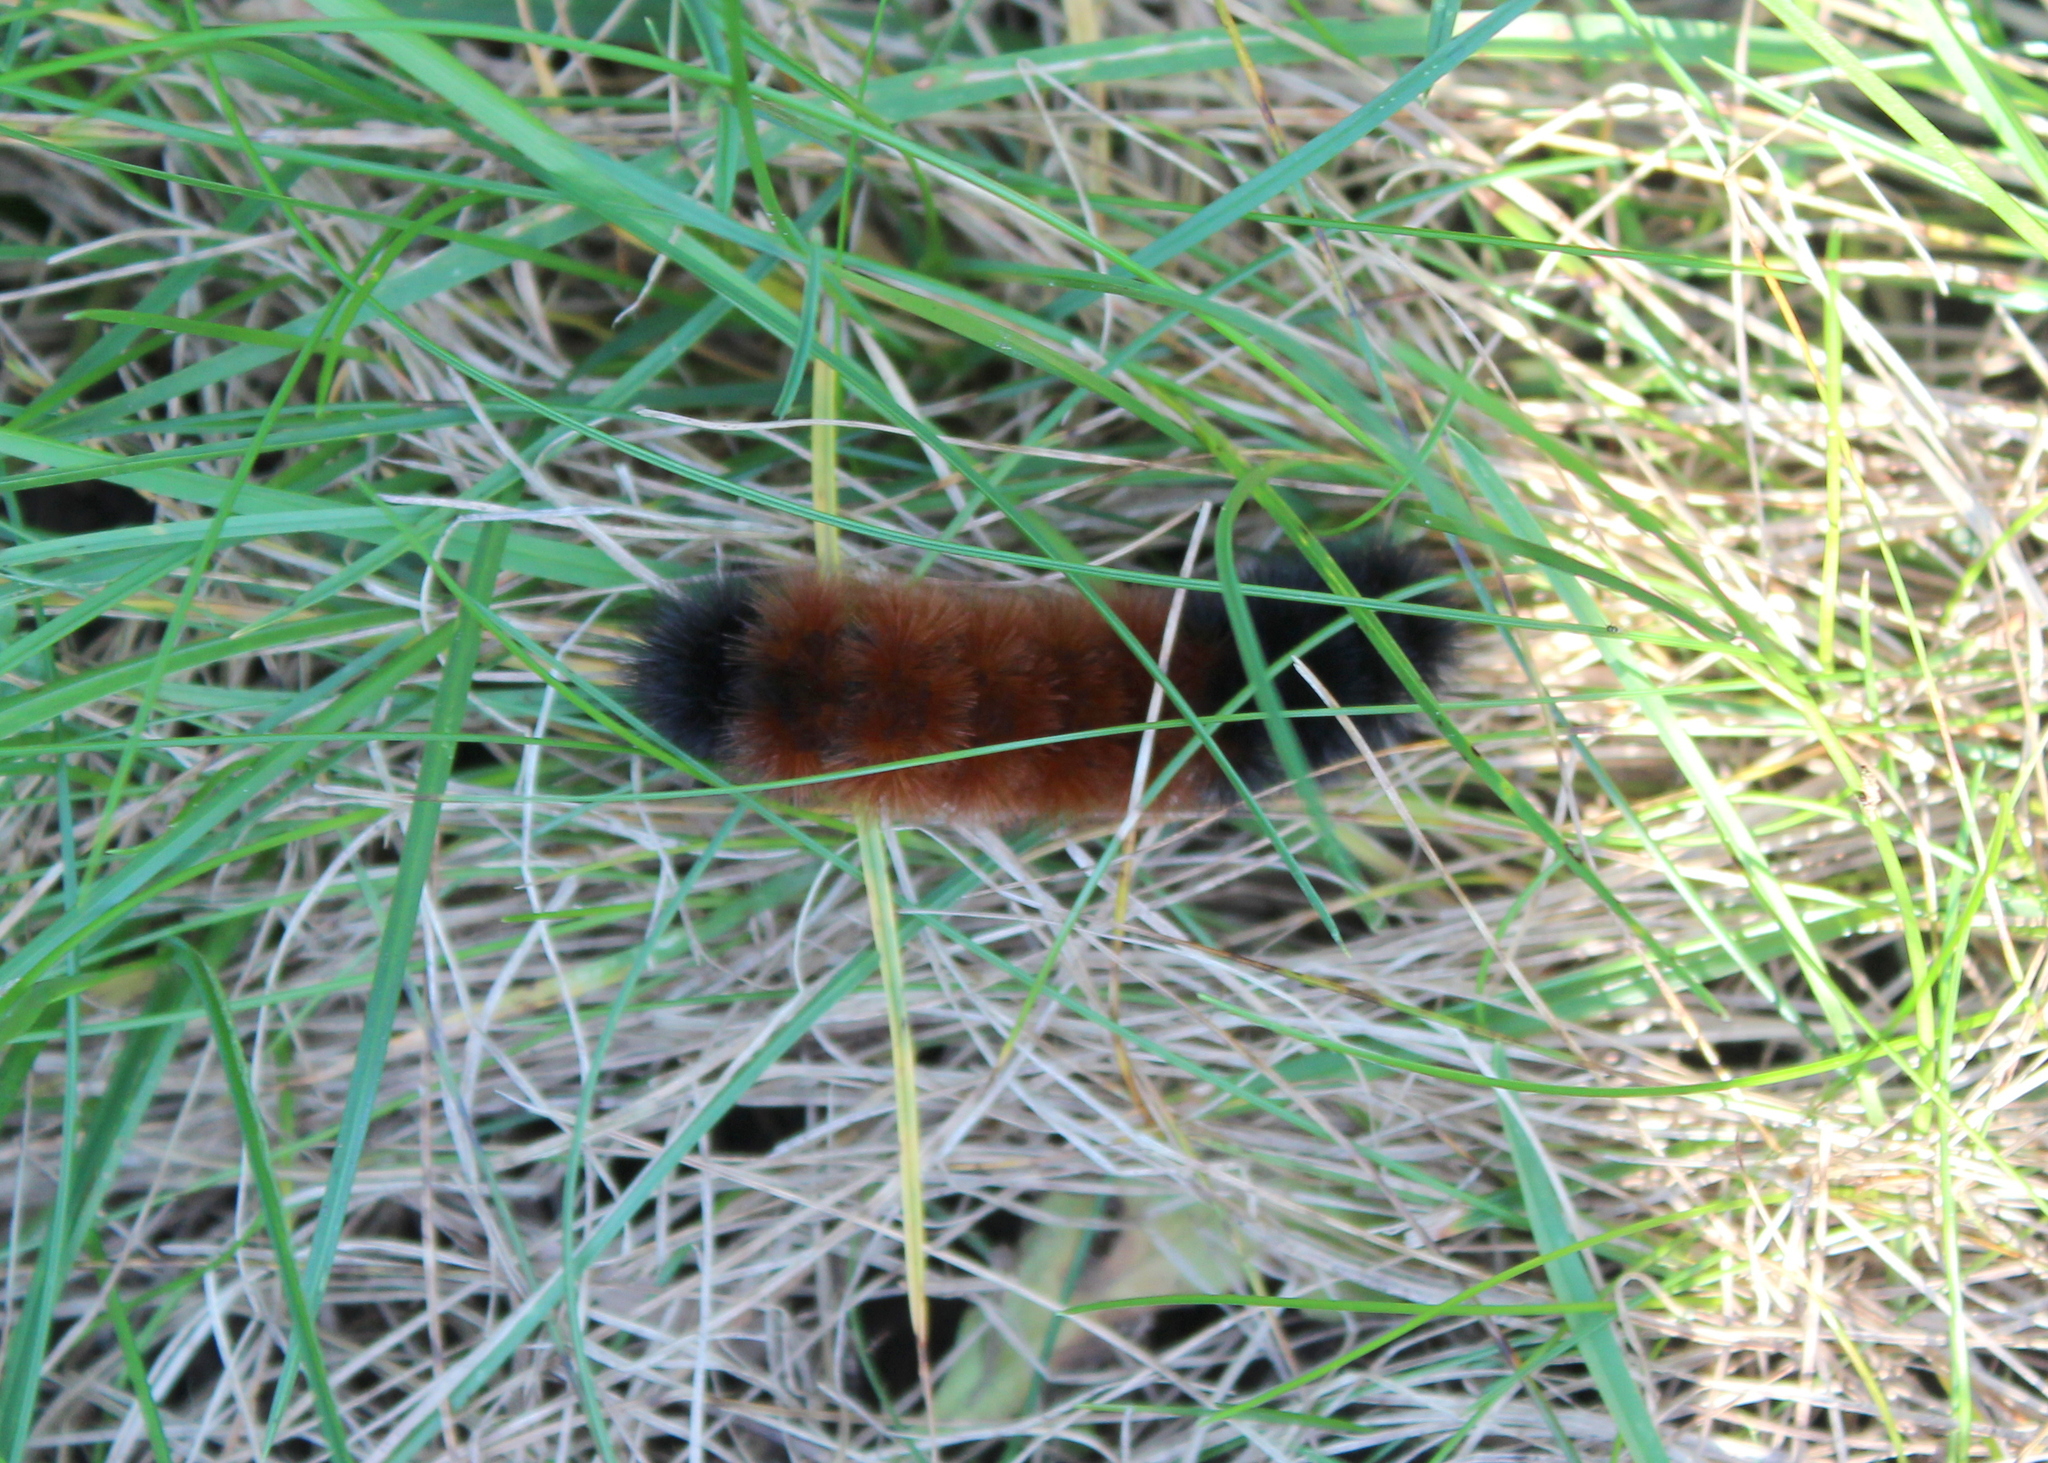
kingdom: Animalia
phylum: Arthropoda
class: Insecta
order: Lepidoptera
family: Erebidae
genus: Pyrrharctia
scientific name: Pyrrharctia isabella
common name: Isabella tiger moth
